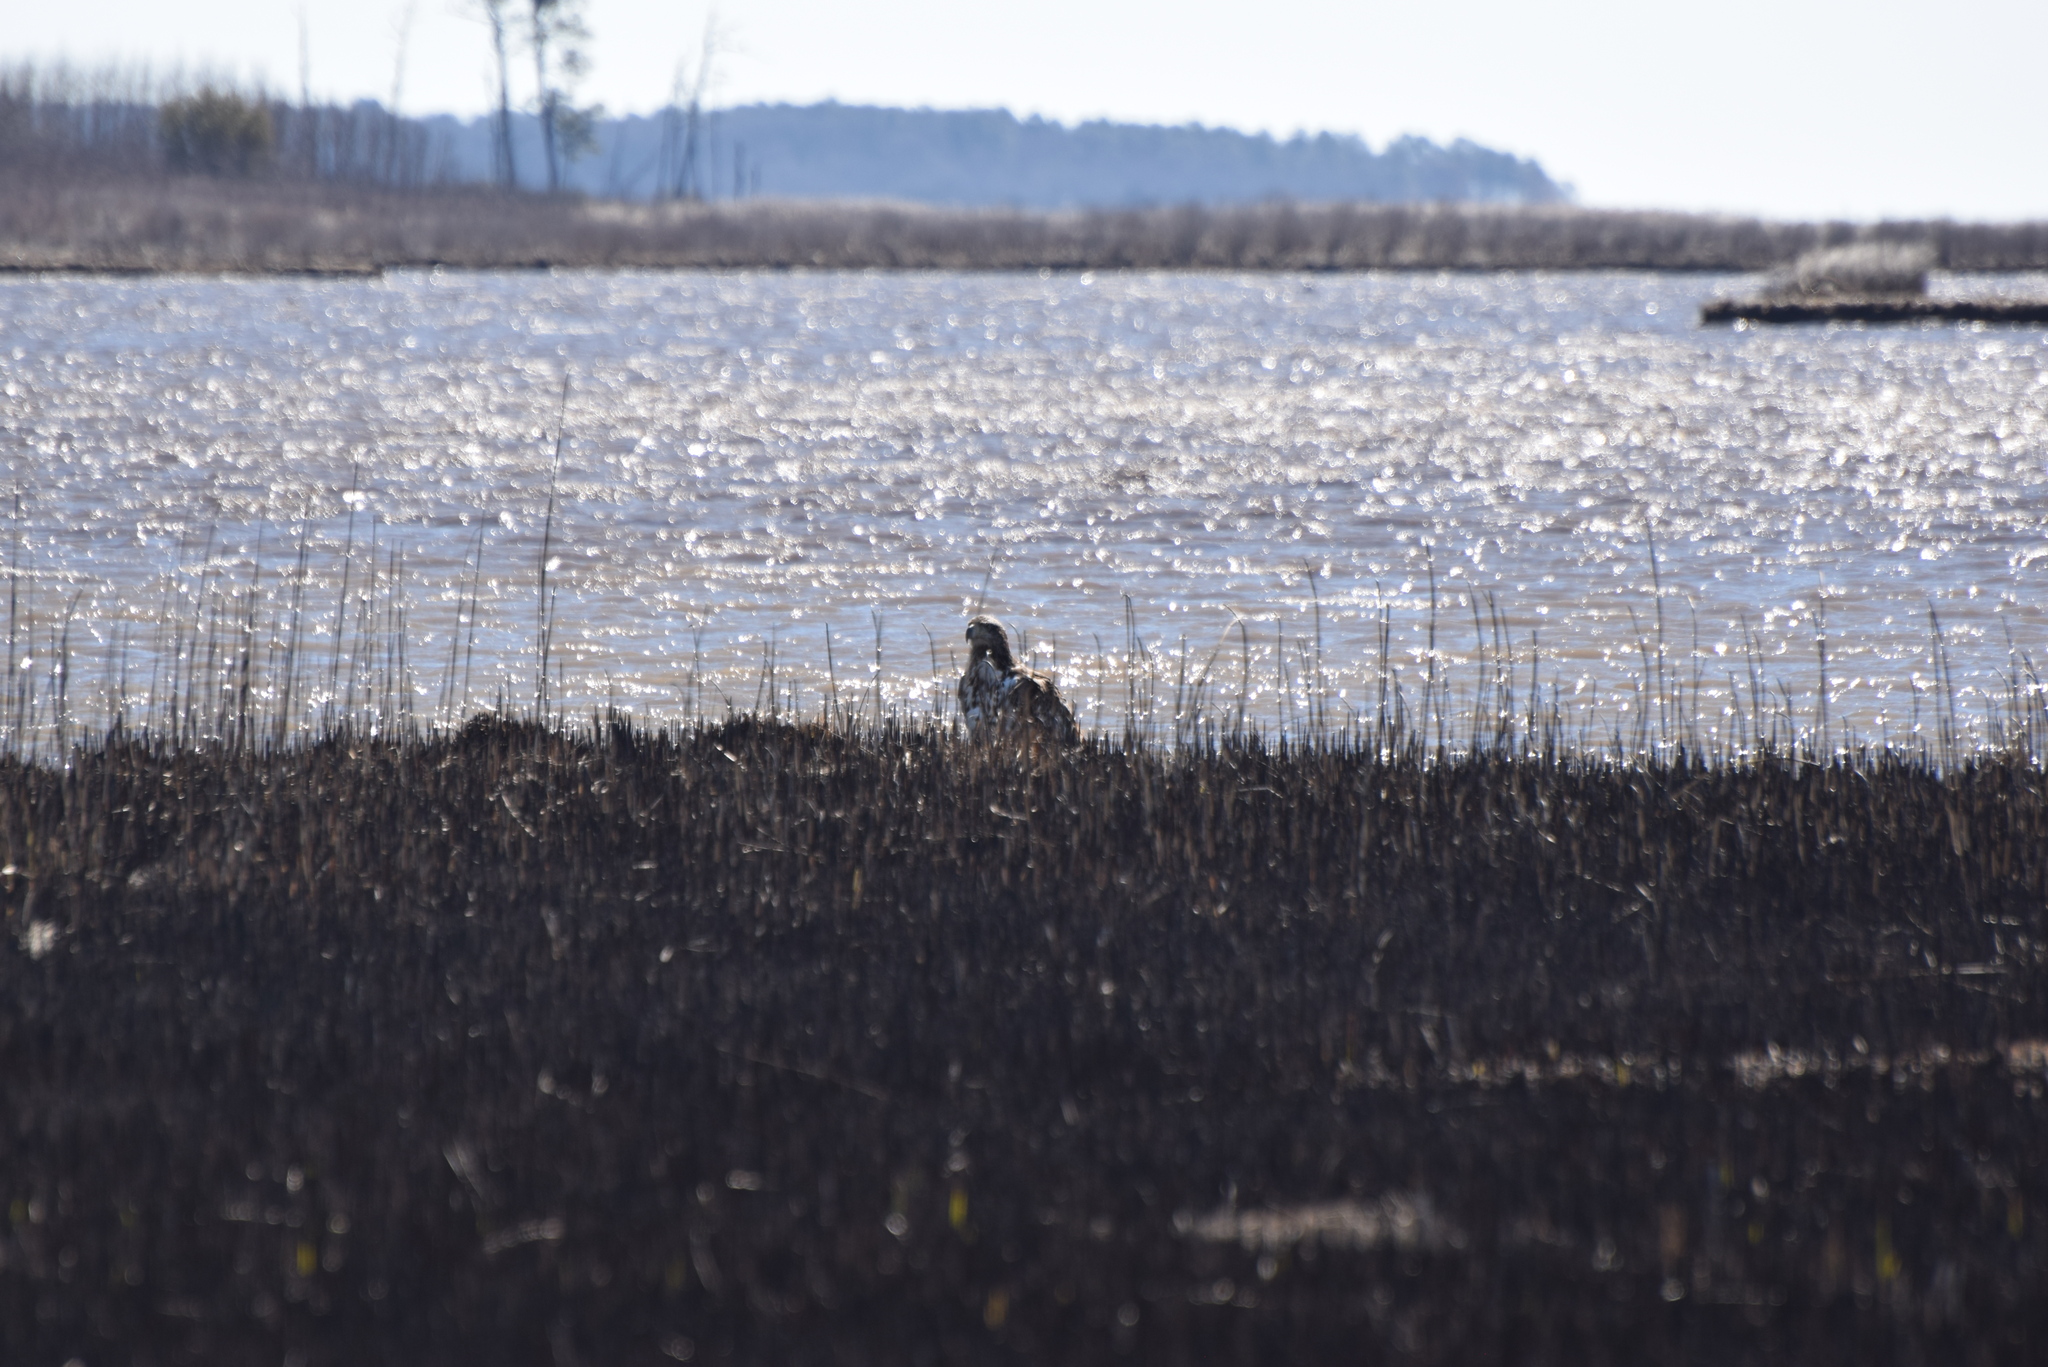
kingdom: Animalia
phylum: Chordata
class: Aves
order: Accipitriformes
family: Accipitridae
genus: Haliaeetus
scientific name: Haliaeetus leucocephalus
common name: Bald eagle
